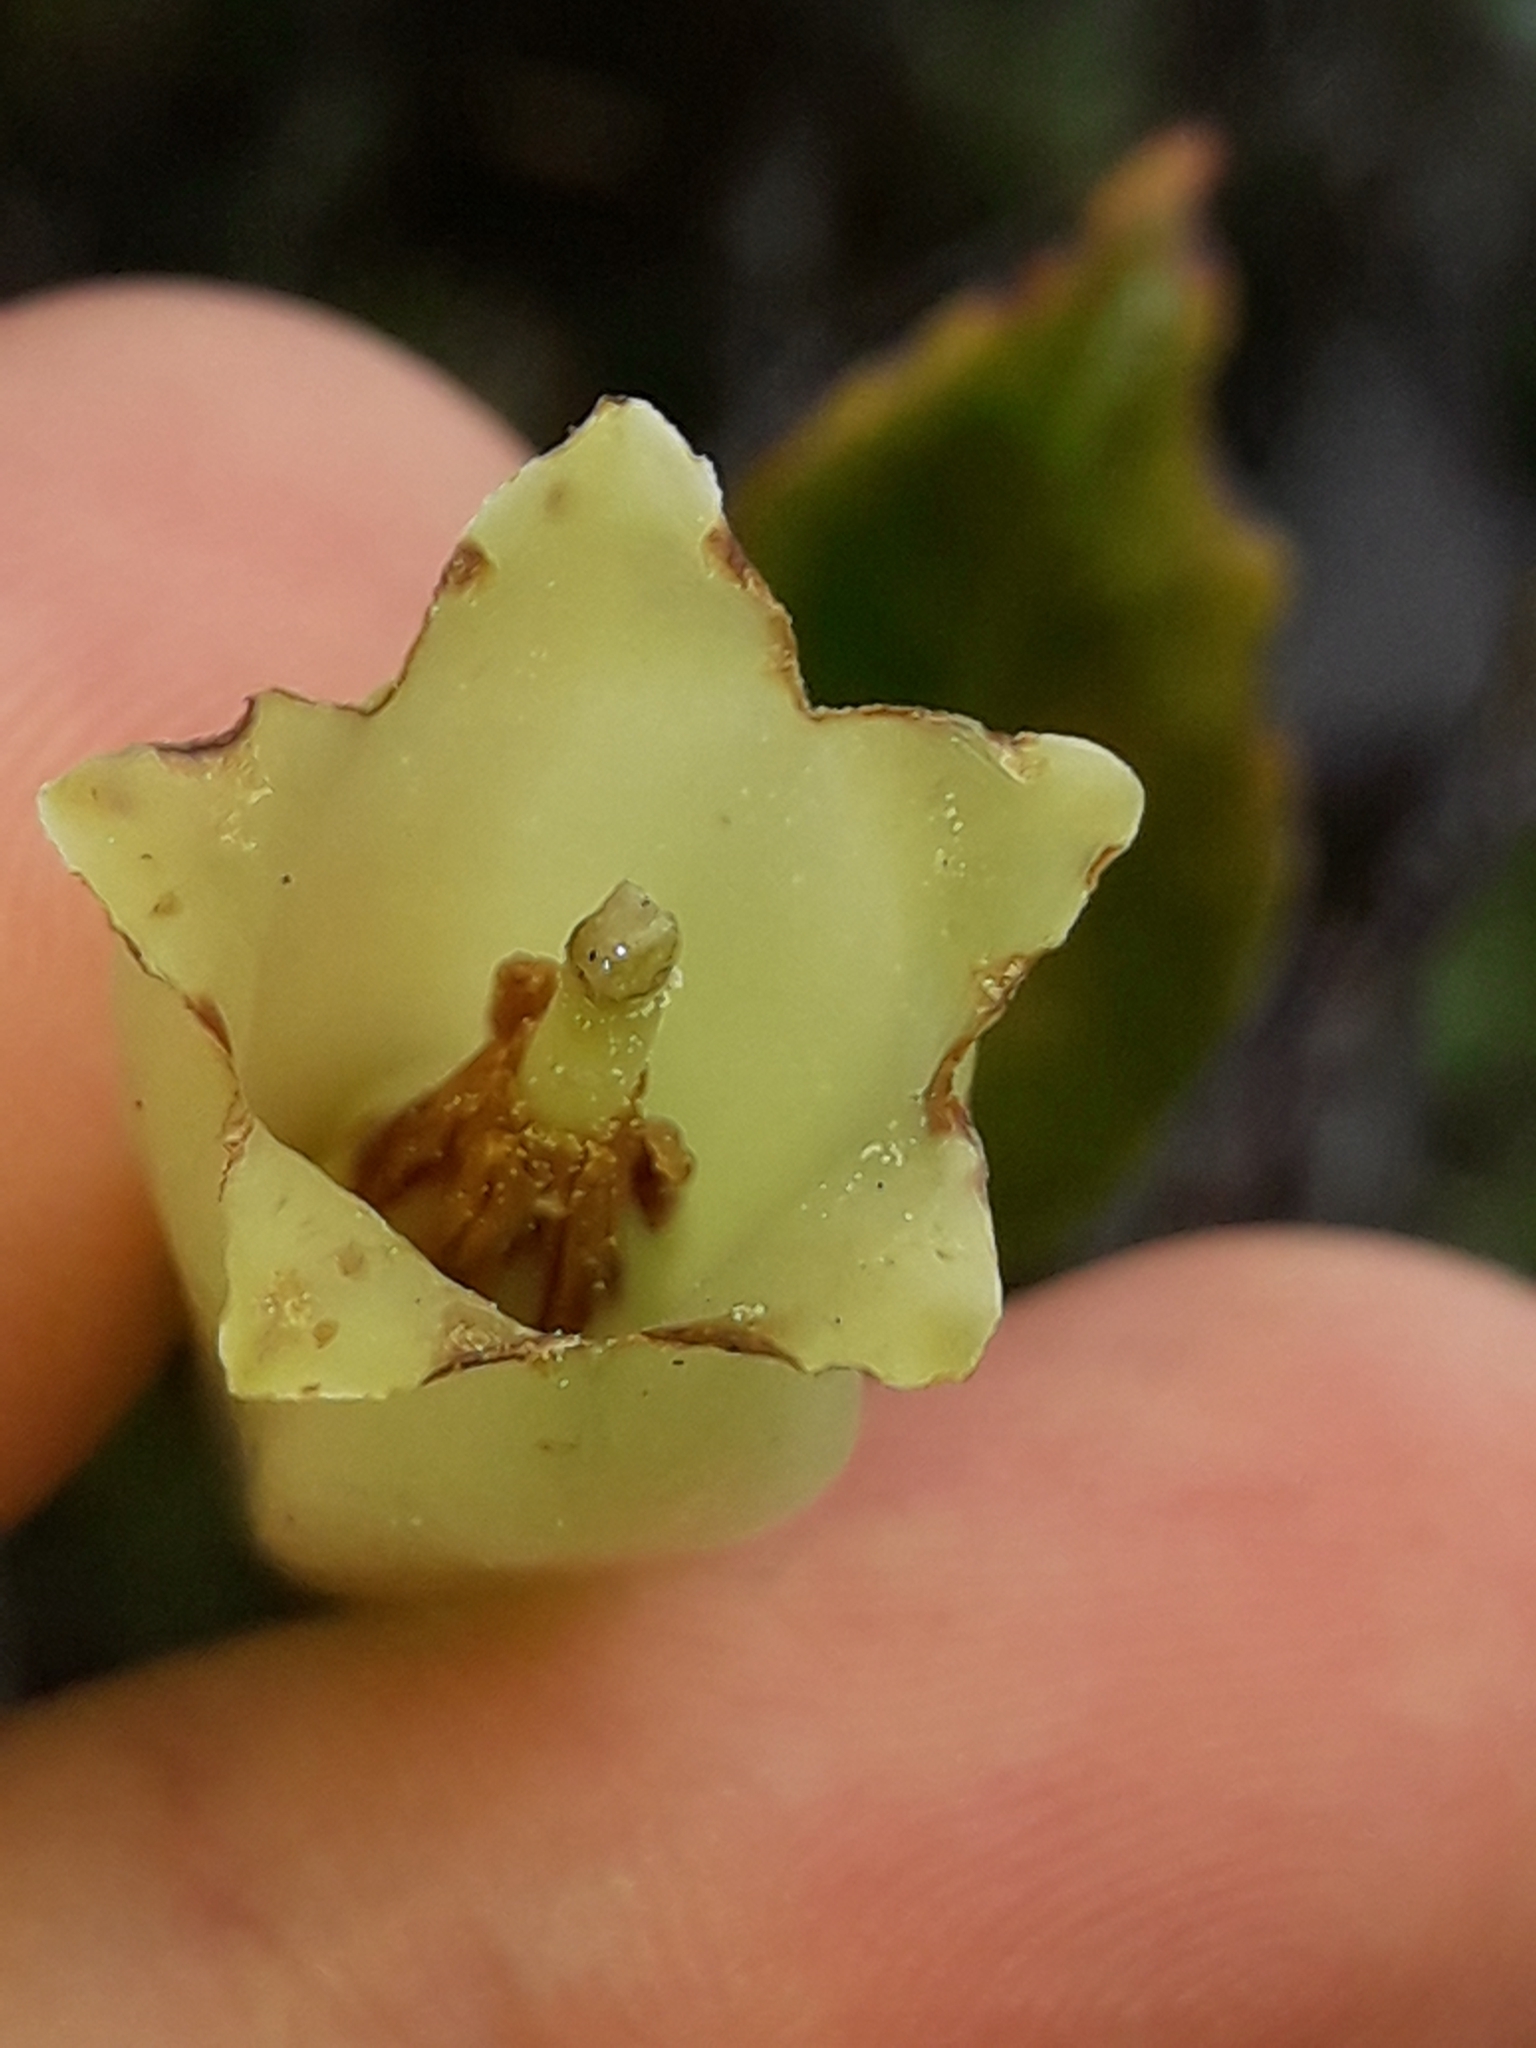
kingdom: Plantae
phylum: Tracheophyta
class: Magnoliopsida
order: Ericales
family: Ericaceae
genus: Paphia
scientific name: Paphia neocaledonica
